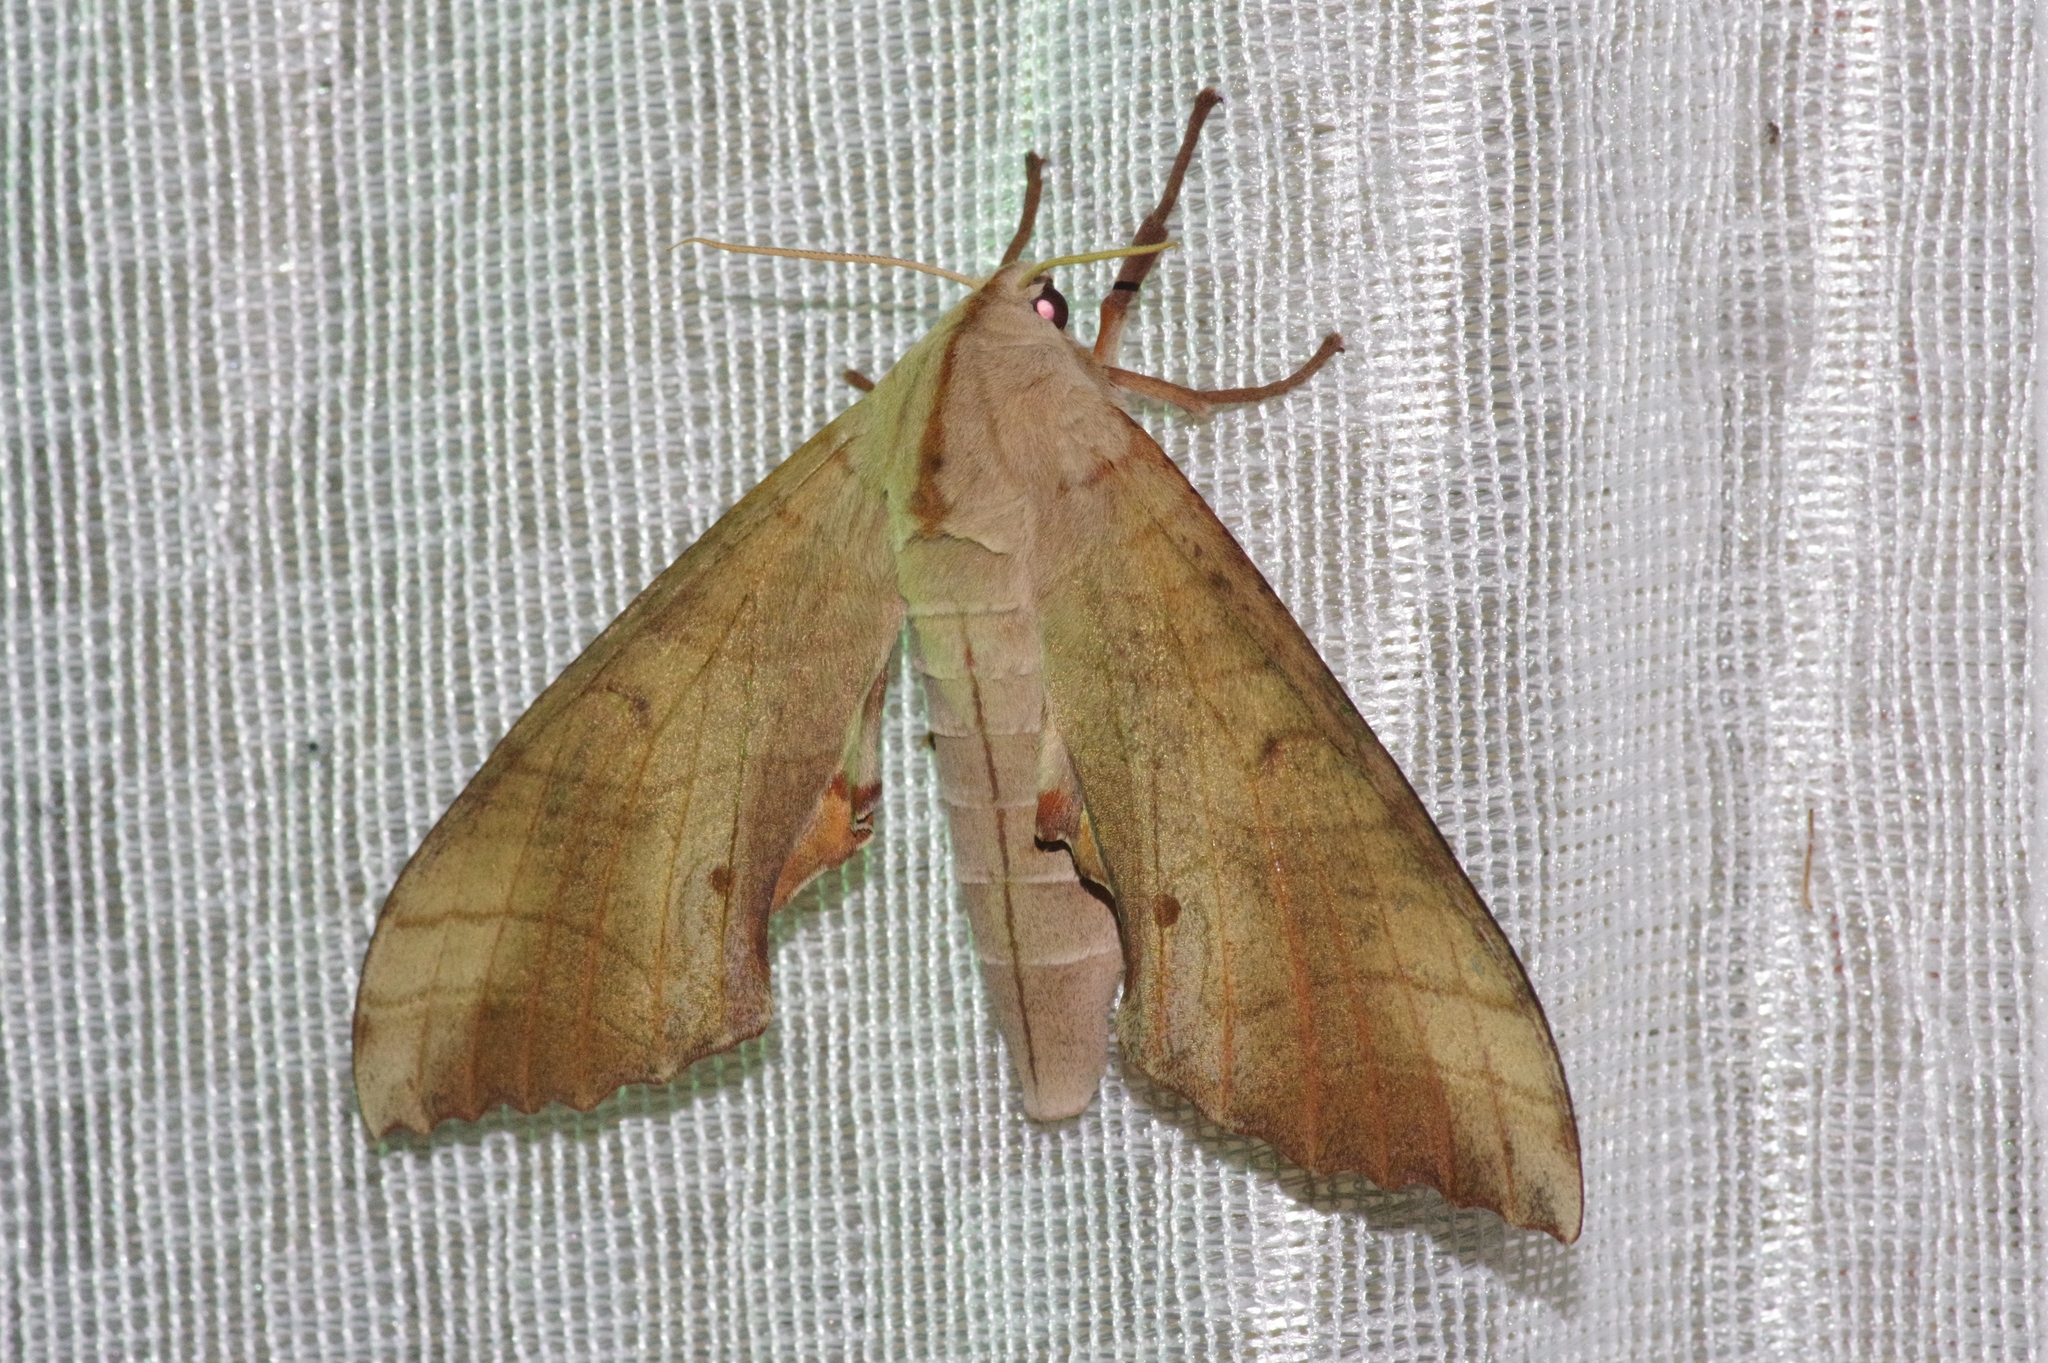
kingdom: Animalia
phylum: Arthropoda
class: Insecta
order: Lepidoptera
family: Sphingidae
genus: Marumba
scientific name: Marumba sperchius
